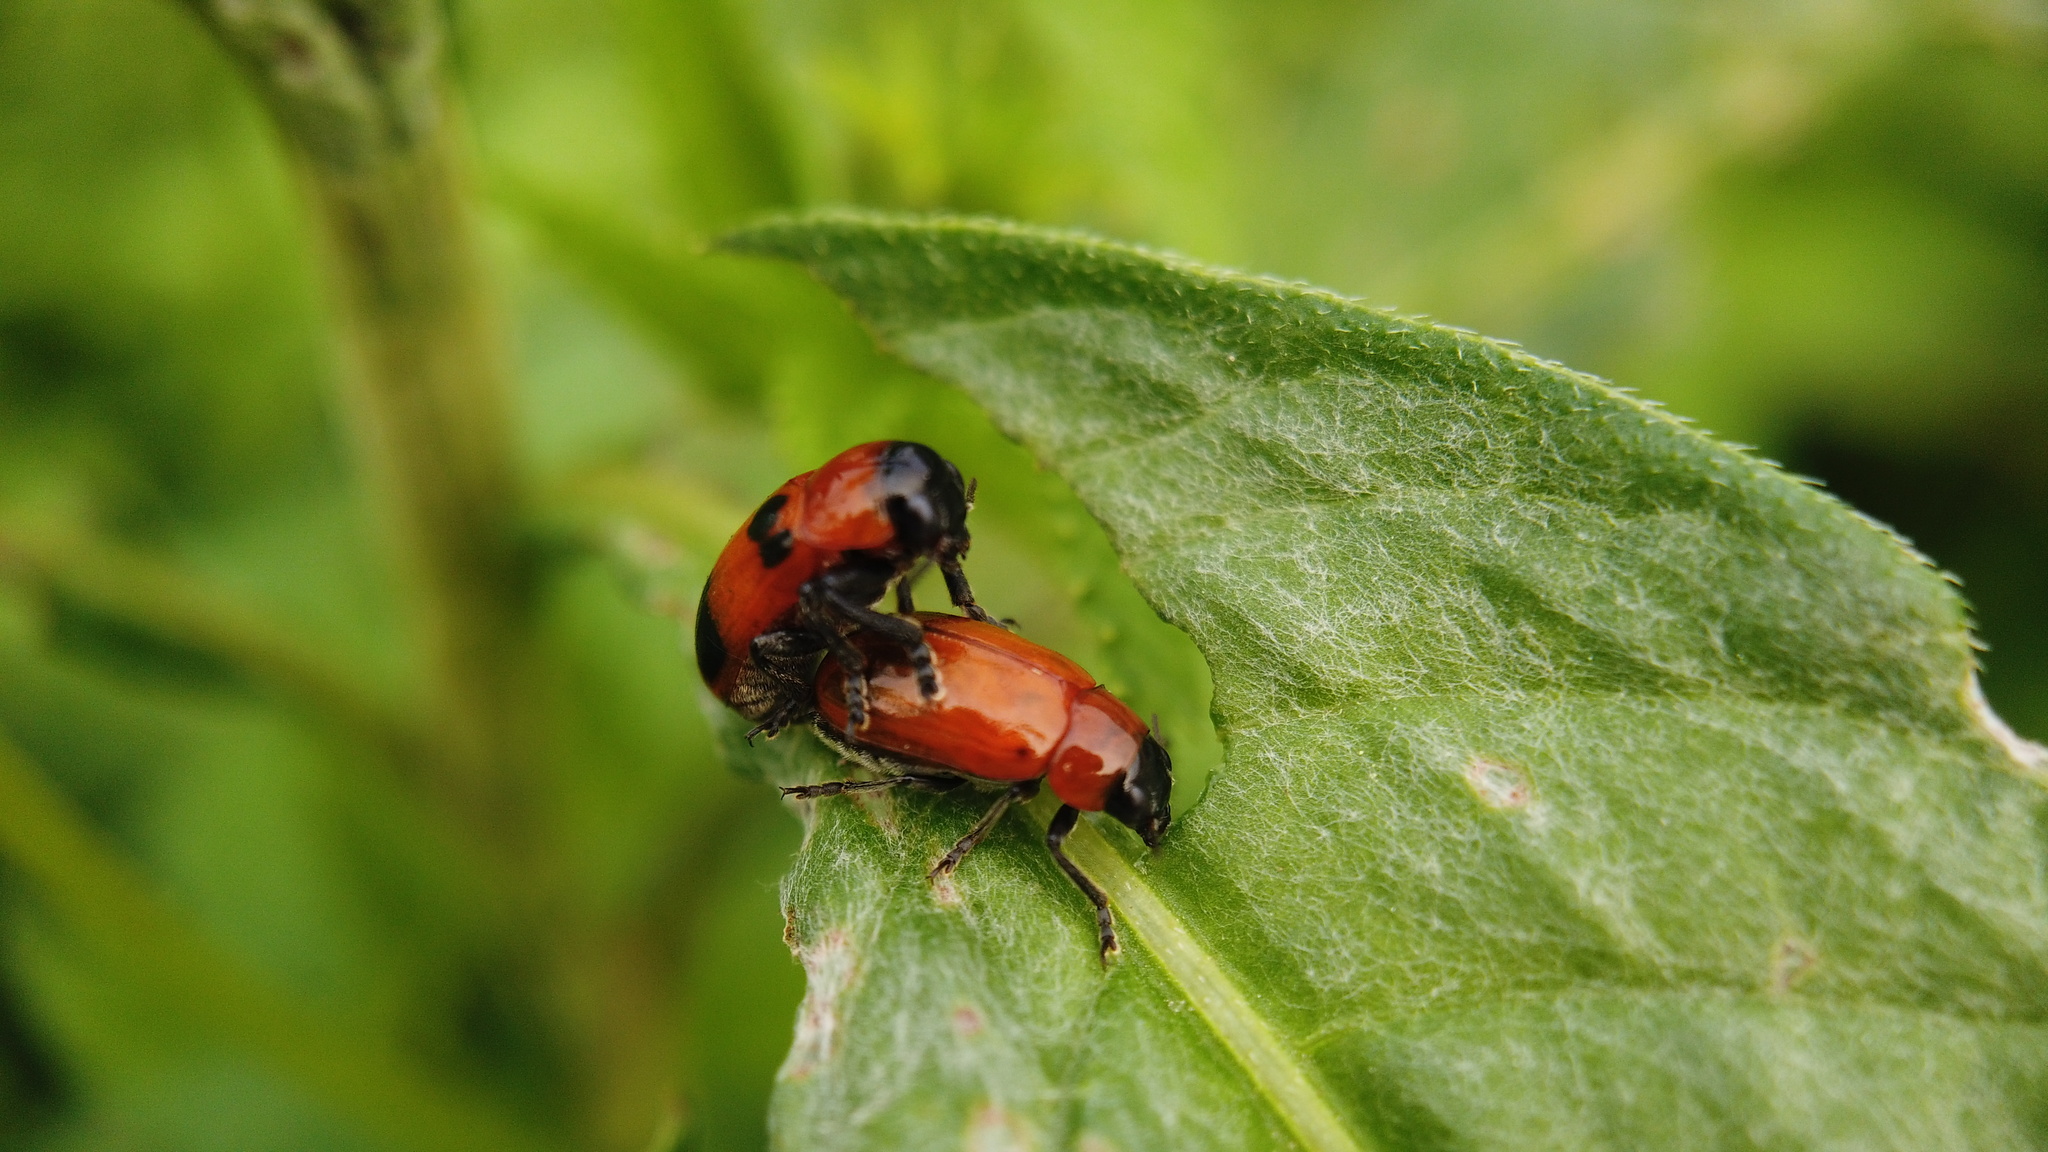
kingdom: Animalia
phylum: Arthropoda
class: Insecta
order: Coleoptera
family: Chrysomelidae
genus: Physosmaragdina
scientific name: Physosmaragdina nigrifrons
